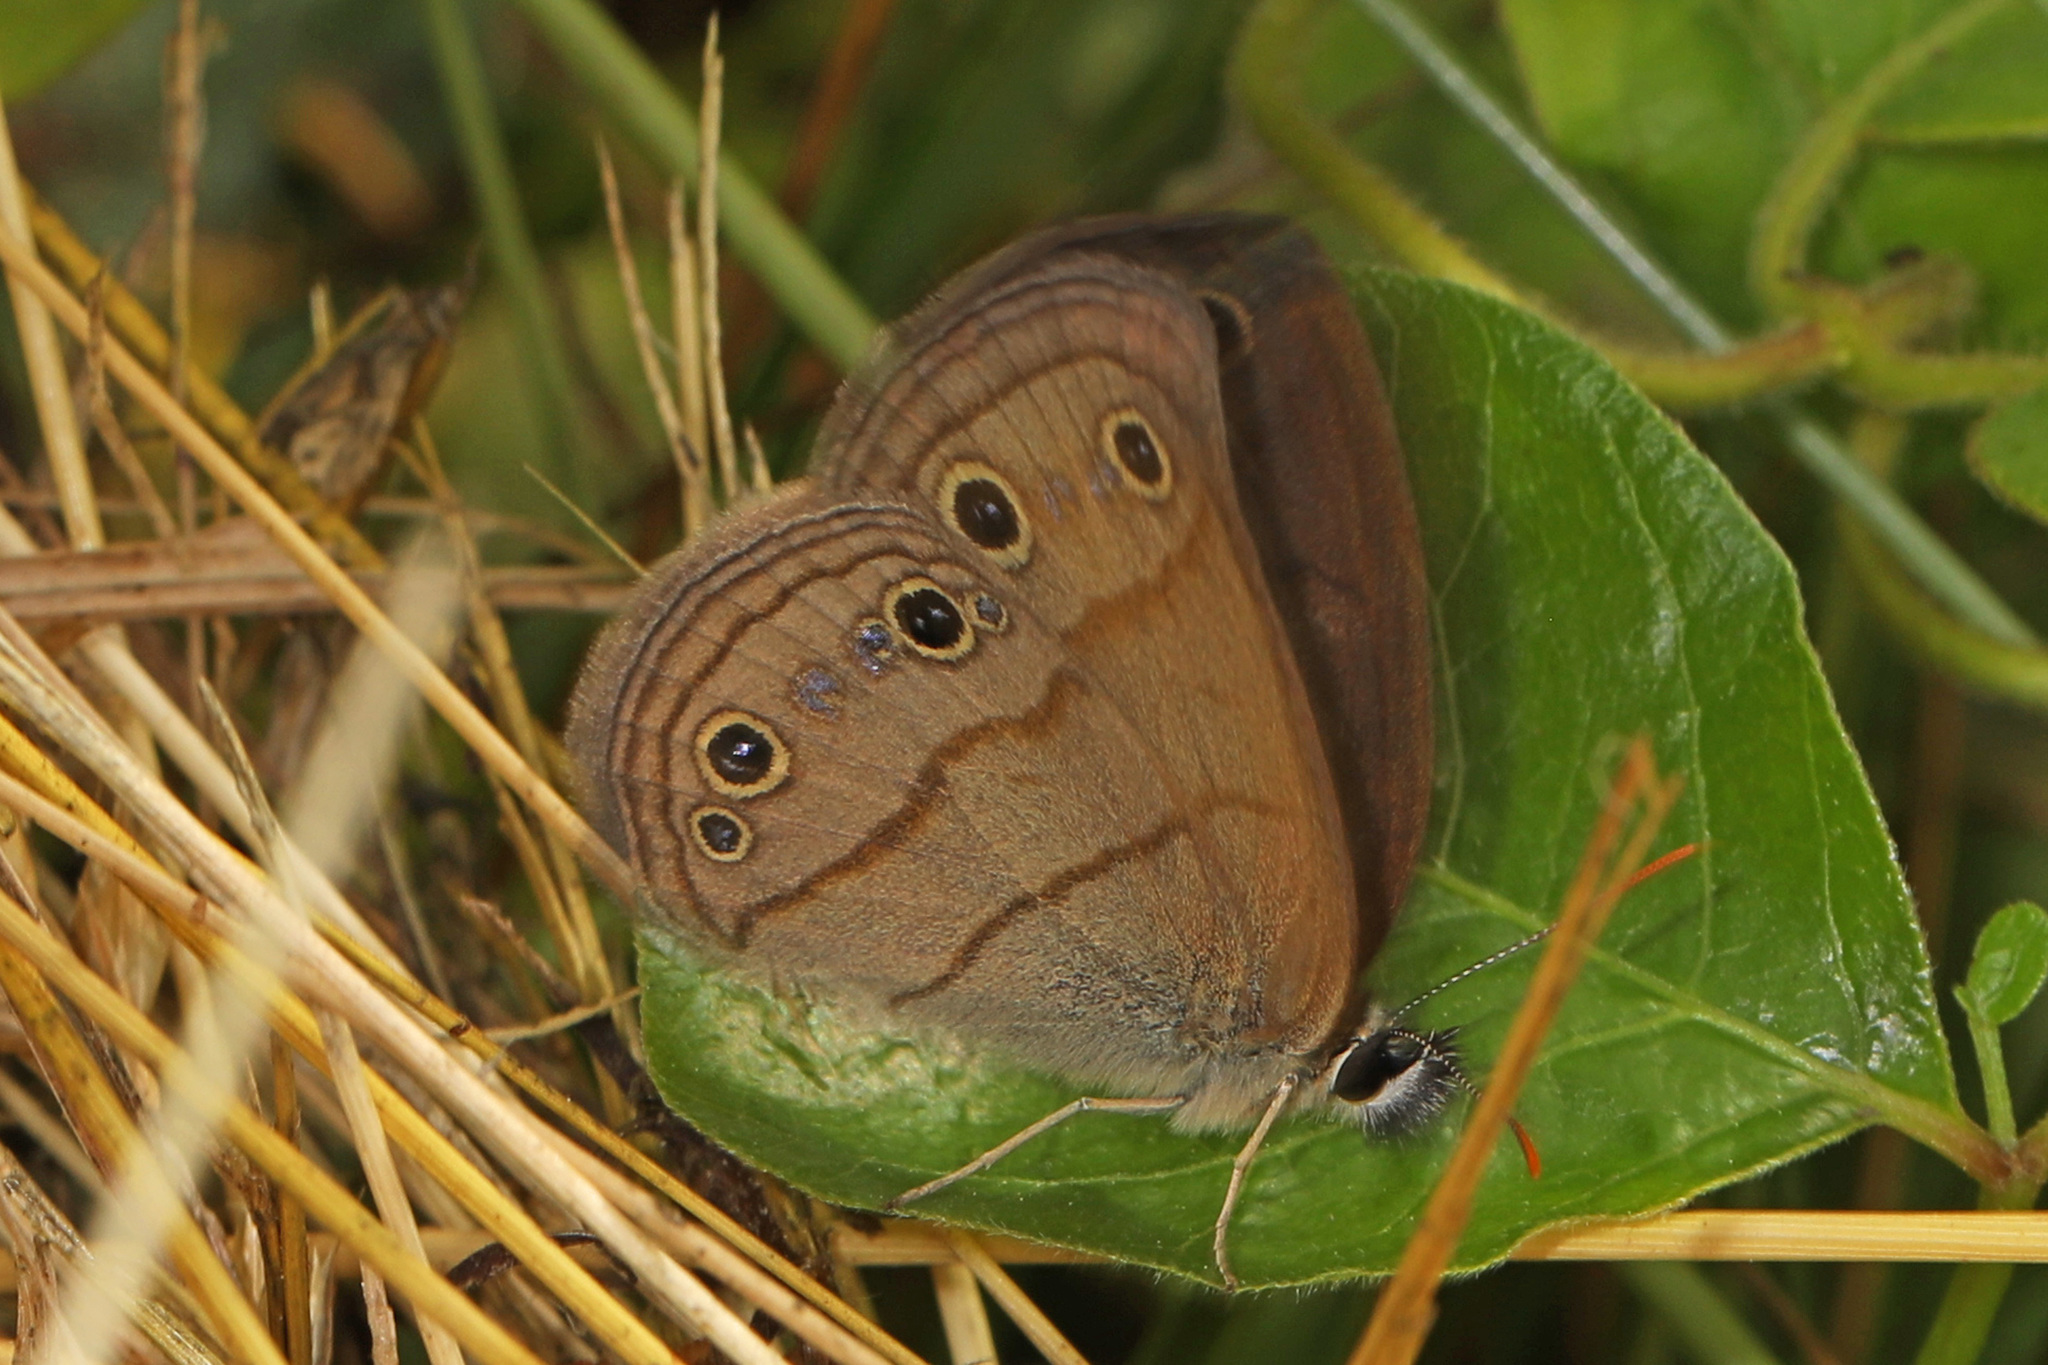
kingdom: Animalia
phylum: Arthropoda
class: Insecta
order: Lepidoptera
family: Nymphalidae
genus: Euptychia
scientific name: Euptychia cymela
